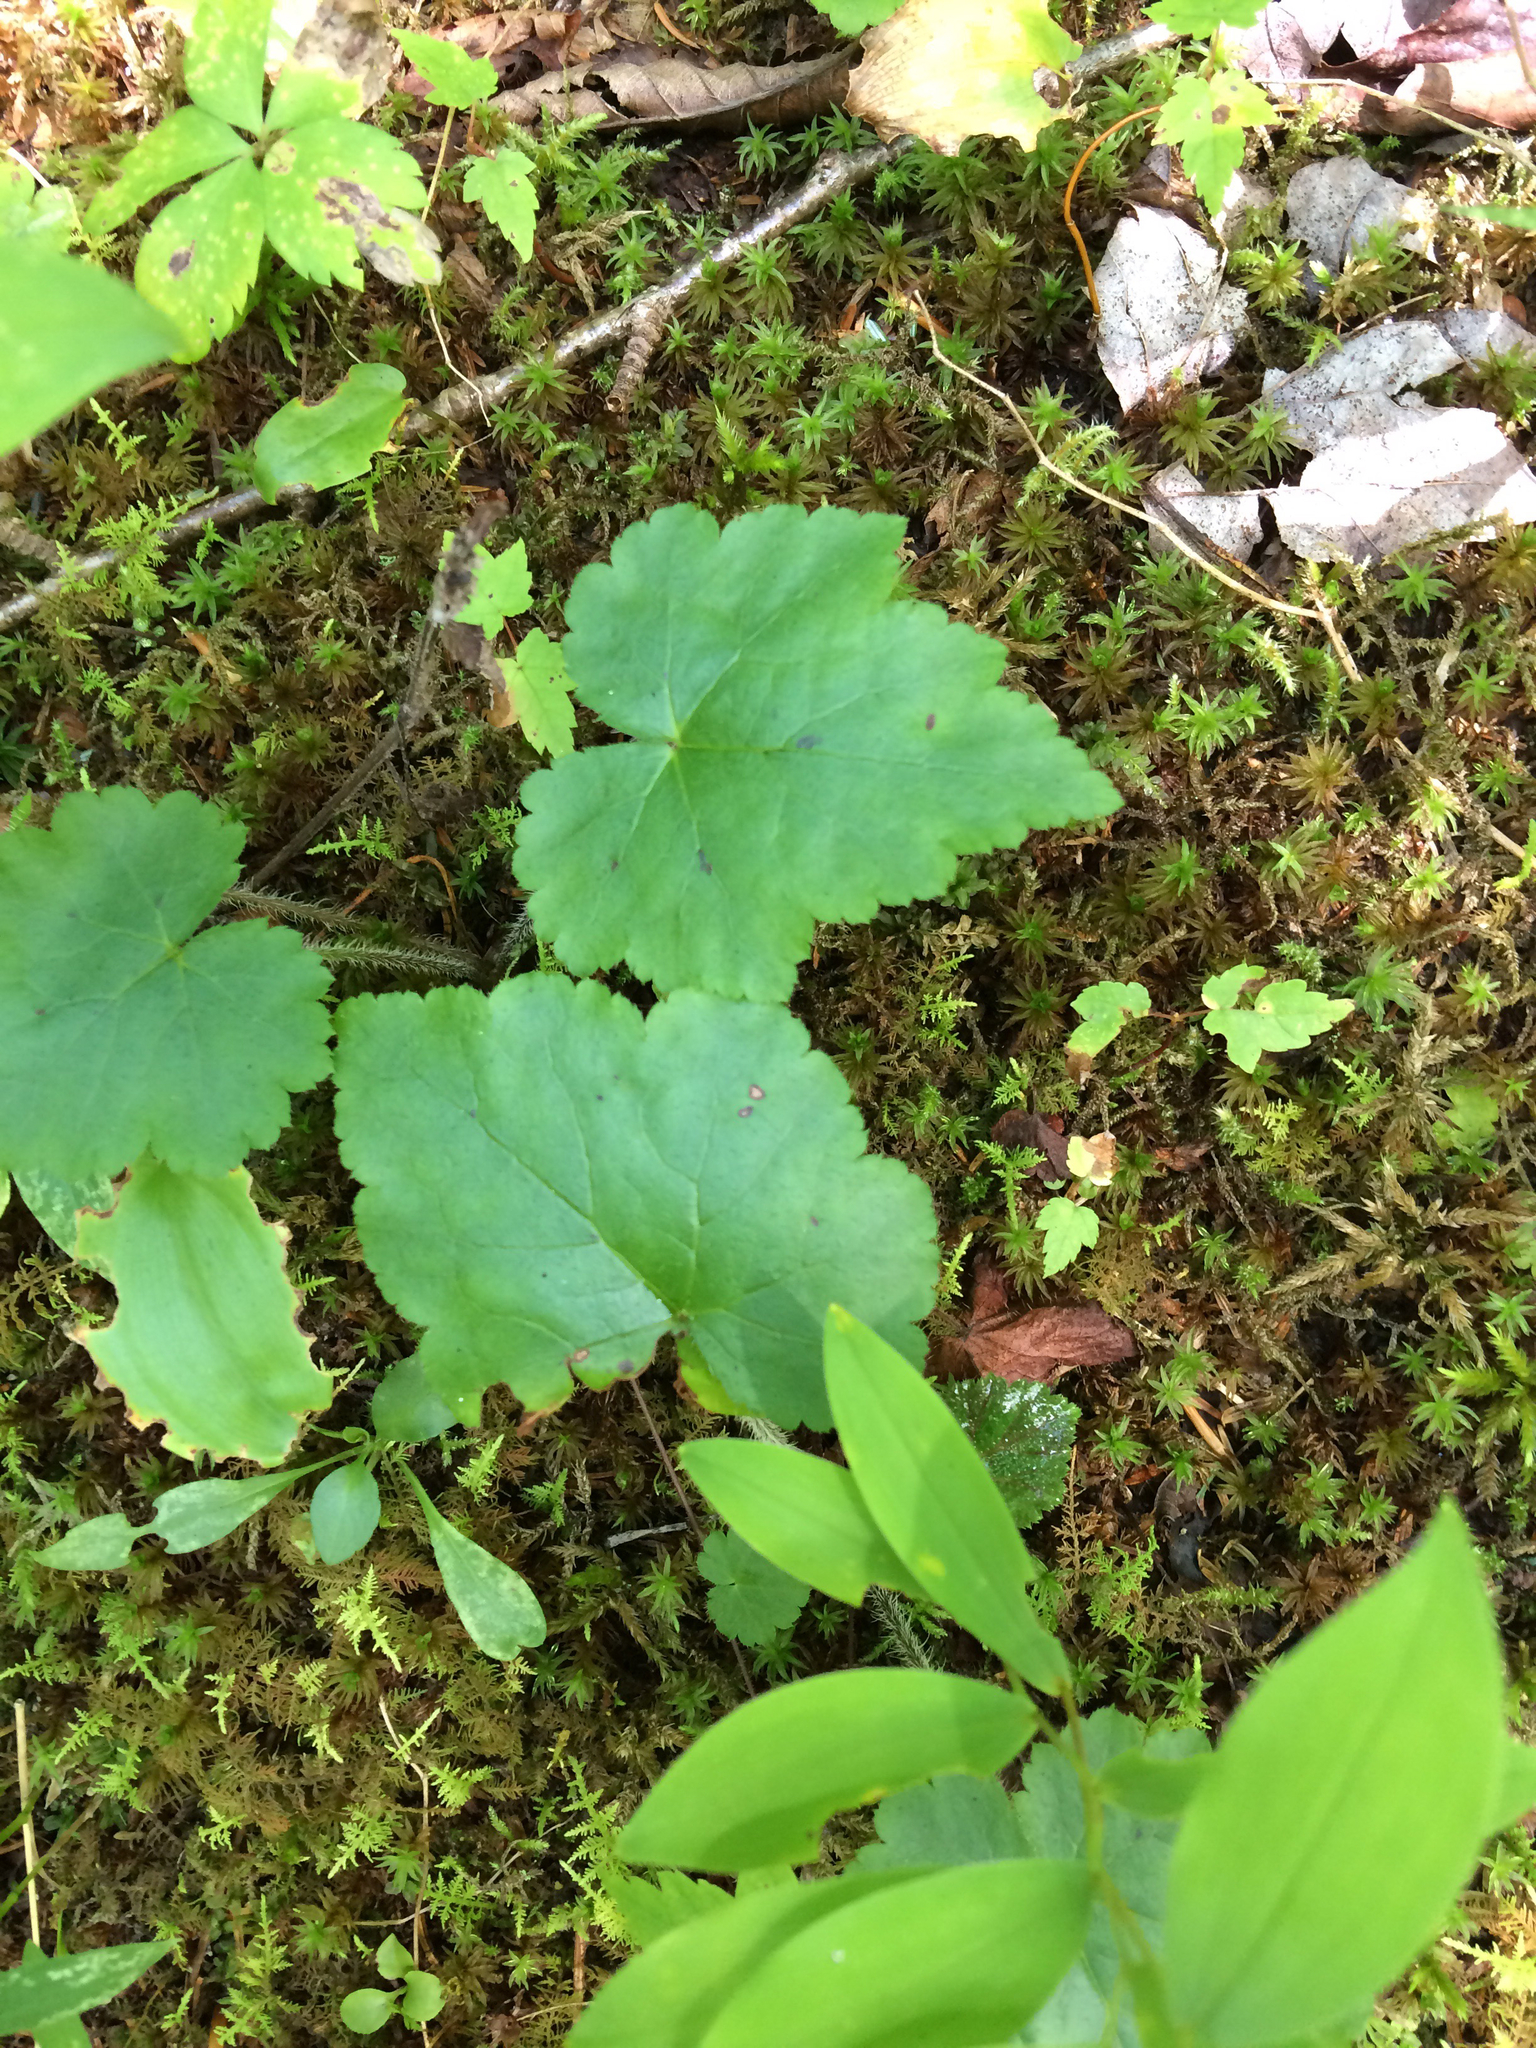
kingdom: Plantae
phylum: Tracheophyta
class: Magnoliopsida
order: Saxifragales
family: Saxifragaceae
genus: Tiarella
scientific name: Tiarella stolonifera
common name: Stoloniferous foamflower
